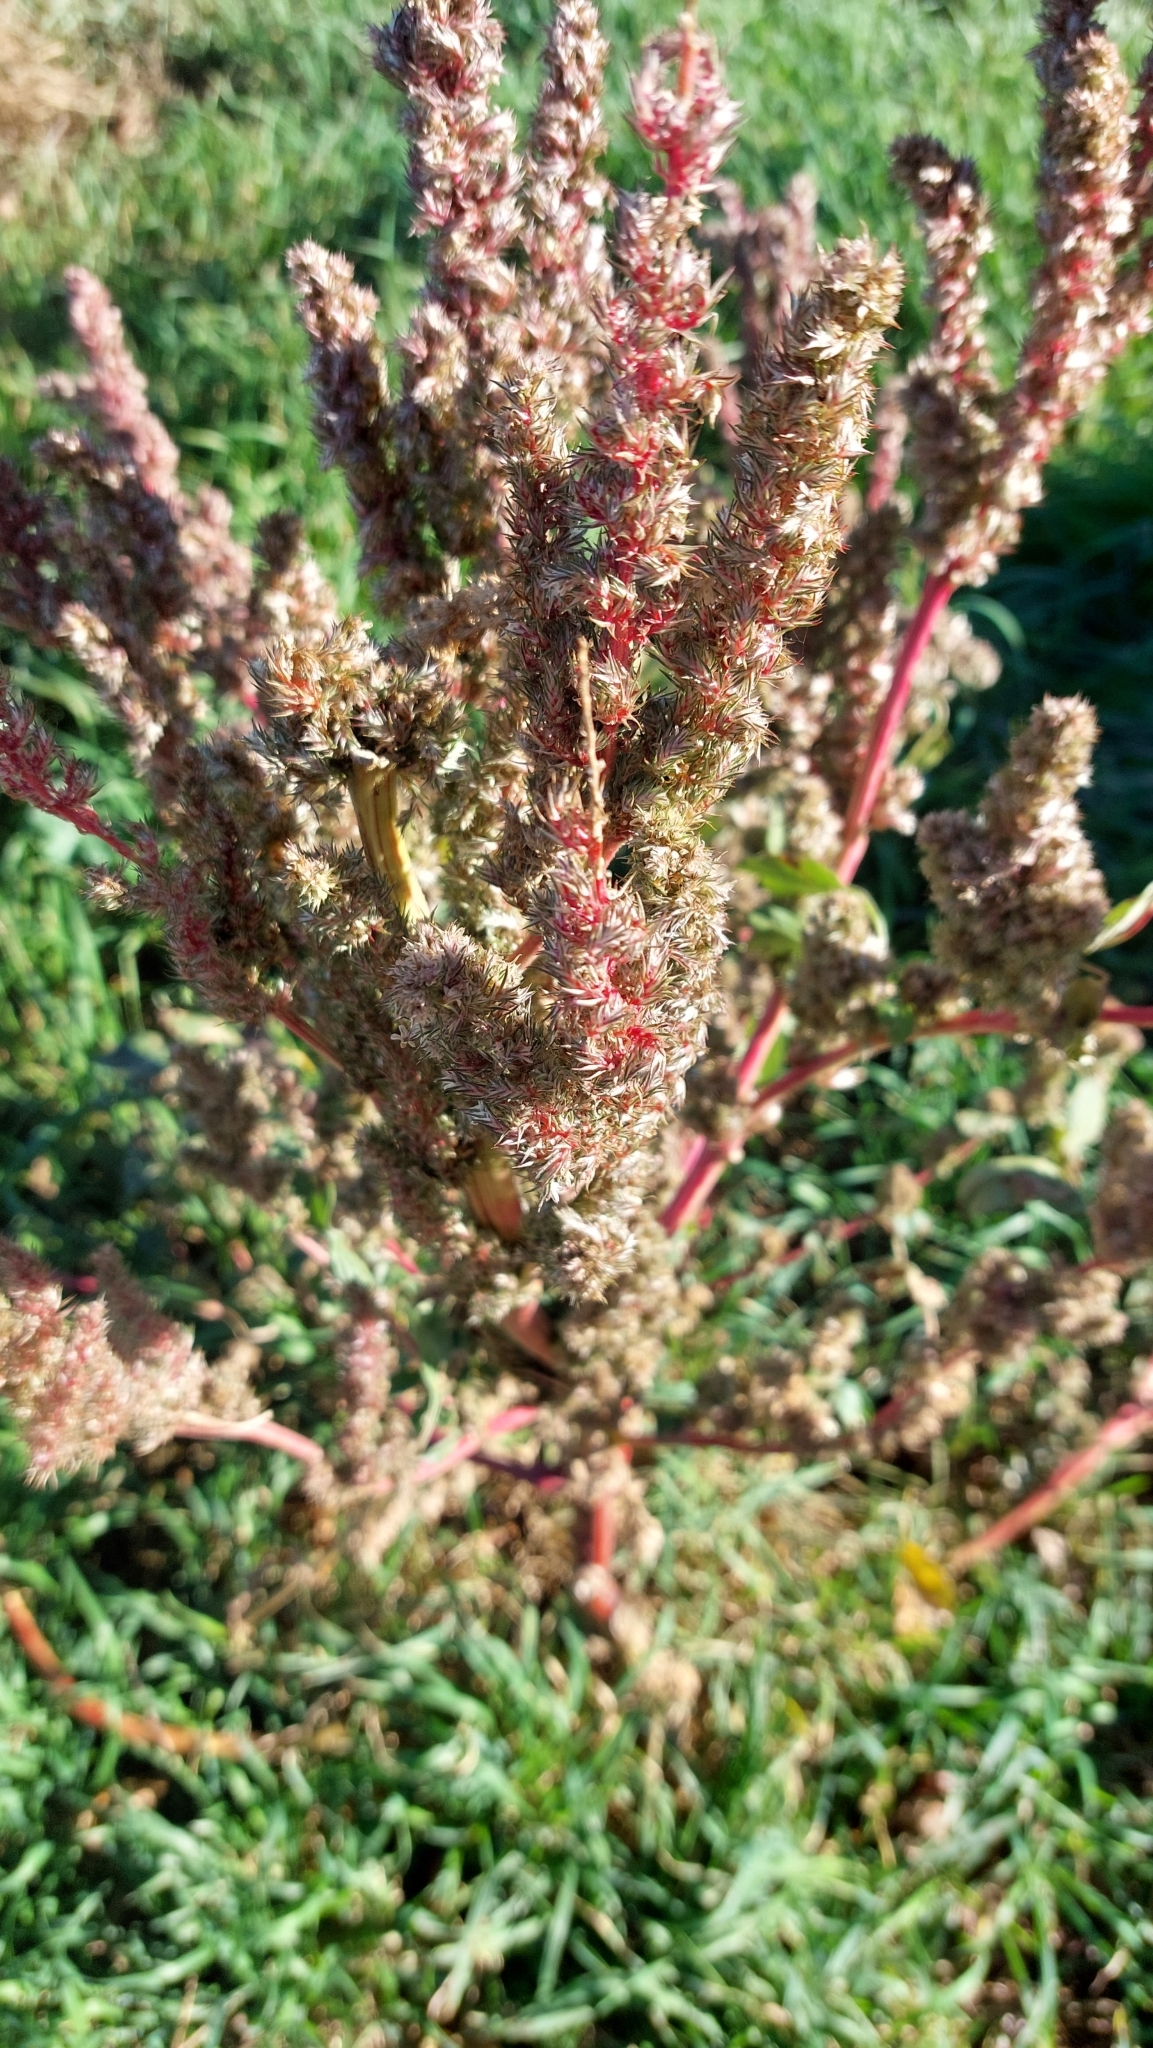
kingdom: Plantae
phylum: Tracheophyta
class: Magnoliopsida
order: Caryophyllales
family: Amaranthaceae
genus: Amaranthus
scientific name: Amaranthus retroflexus
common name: Redroot amaranth
